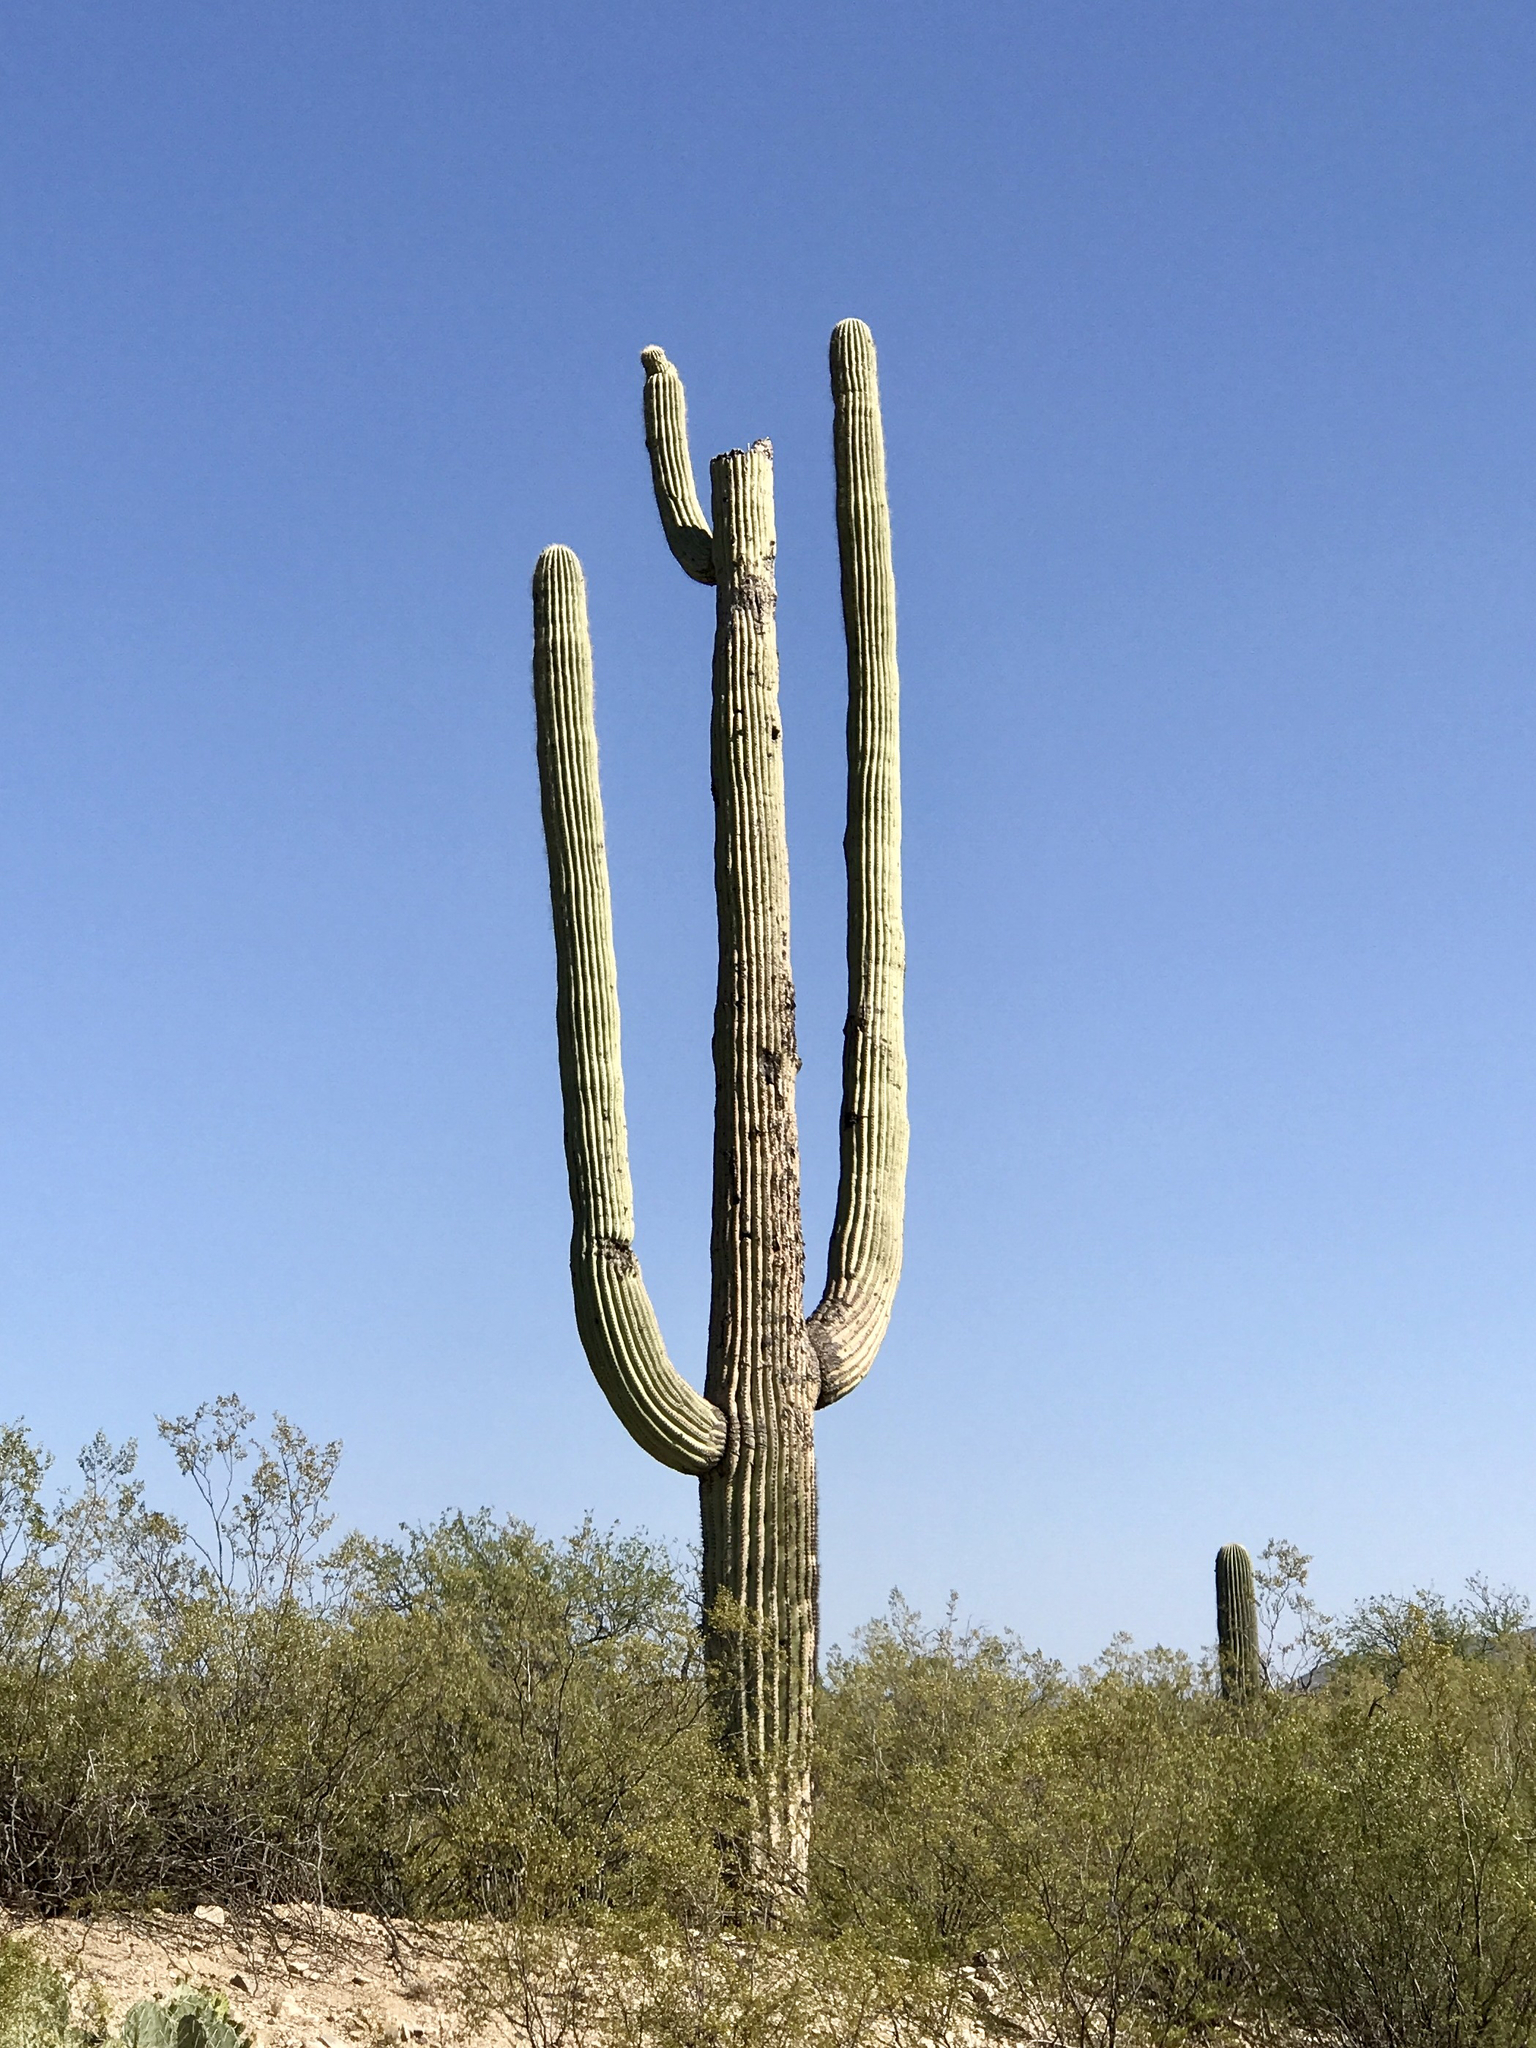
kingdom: Plantae
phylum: Tracheophyta
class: Magnoliopsida
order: Caryophyllales
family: Cactaceae
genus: Carnegiea
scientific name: Carnegiea gigantea
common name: Saguaro
